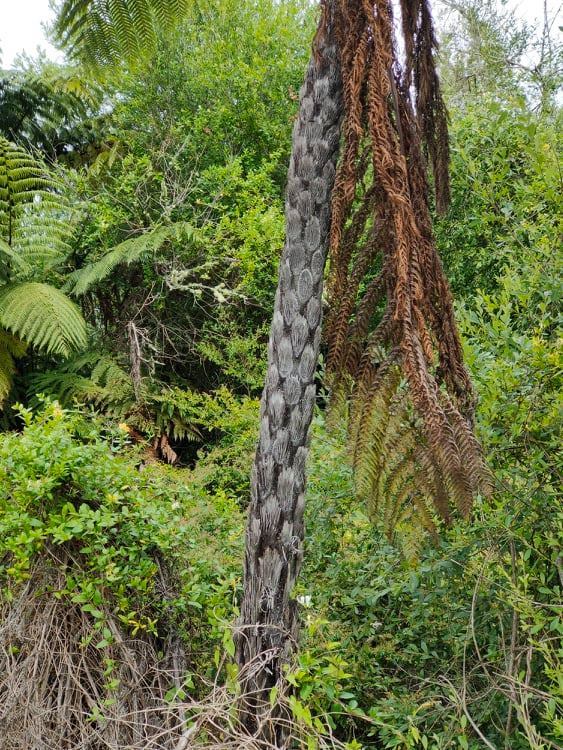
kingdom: Plantae
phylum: Tracheophyta
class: Polypodiopsida
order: Cyatheales
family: Cyatheaceae
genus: Sphaeropteris
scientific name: Sphaeropteris medullaris
